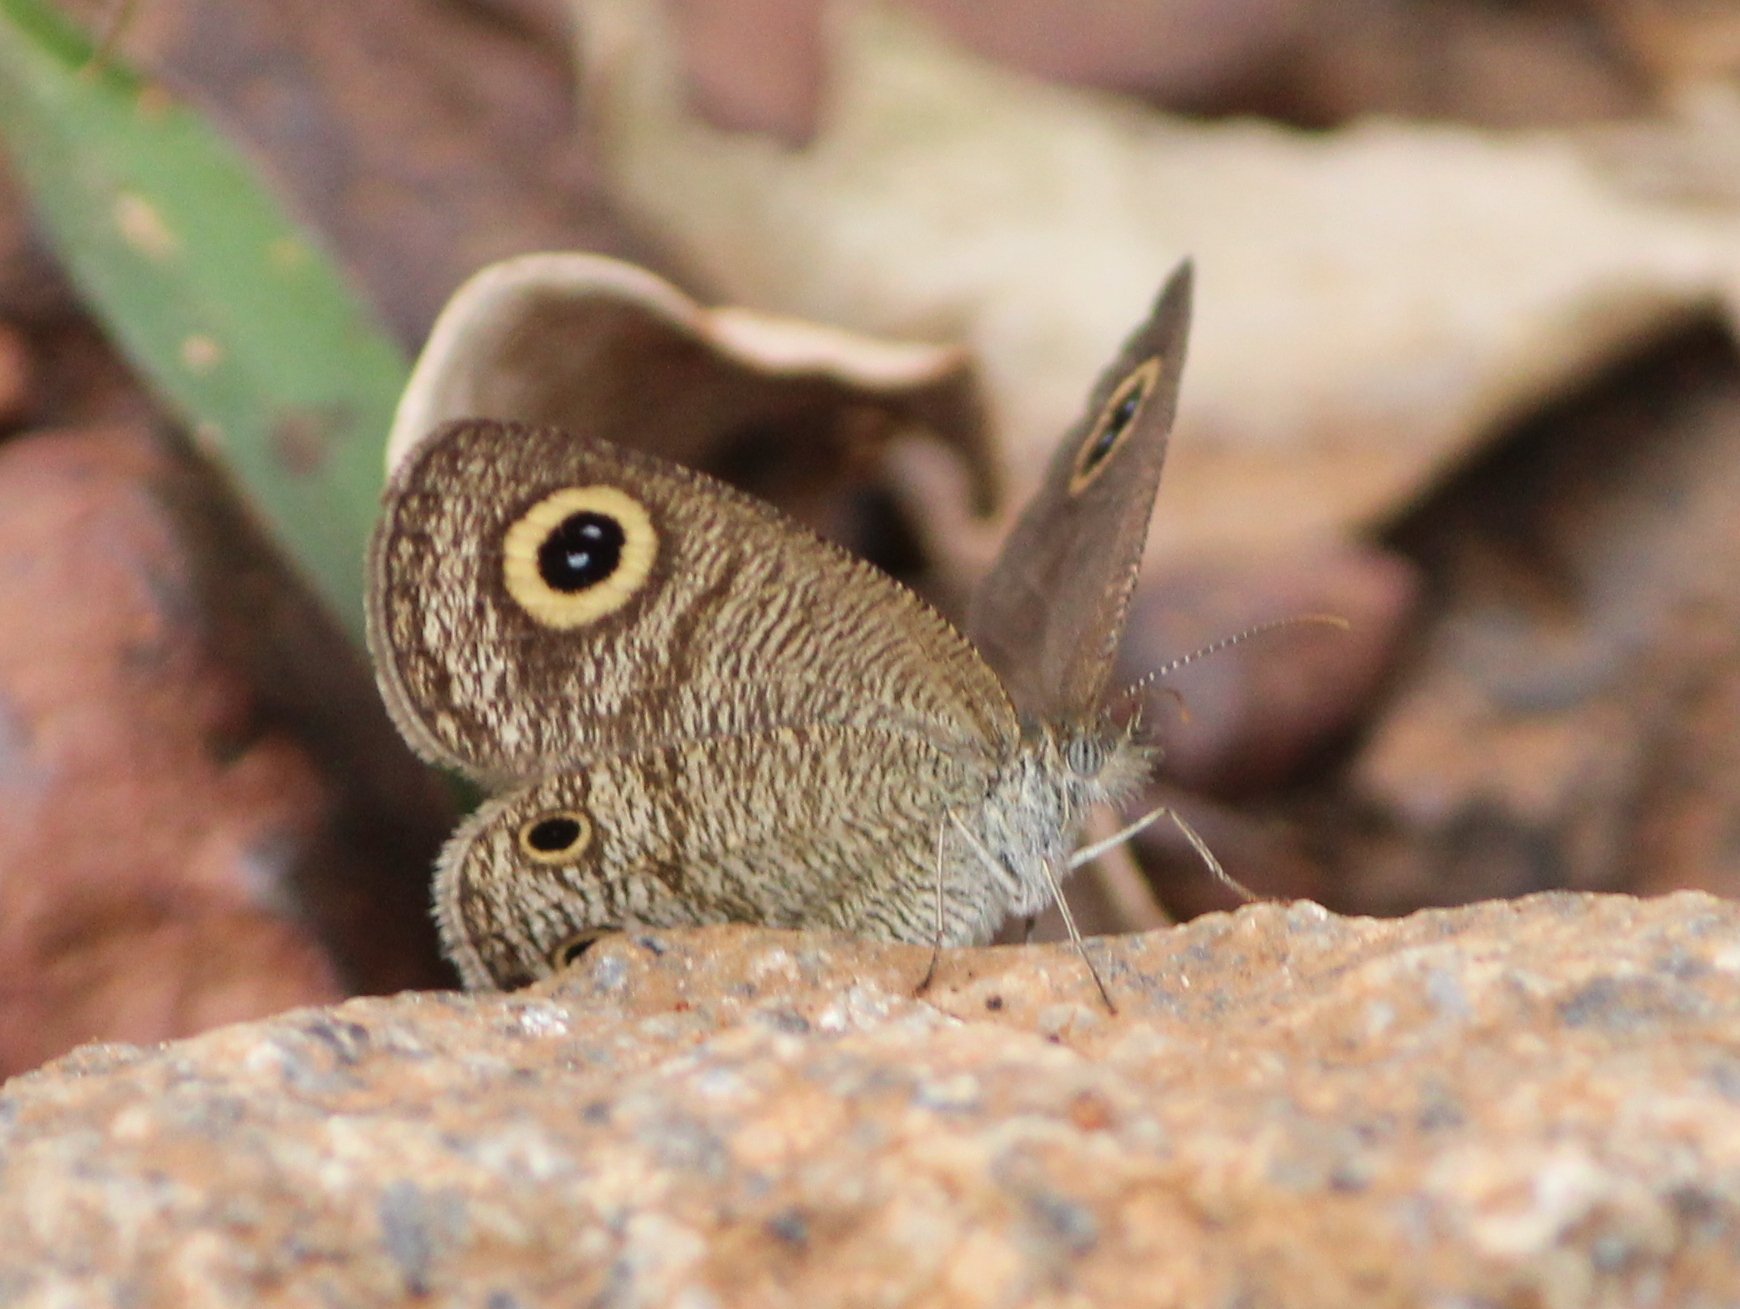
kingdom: Animalia
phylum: Arthropoda
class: Insecta
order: Lepidoptera
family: Nymphalidae
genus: Ypthima
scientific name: Ypthima huebneri
